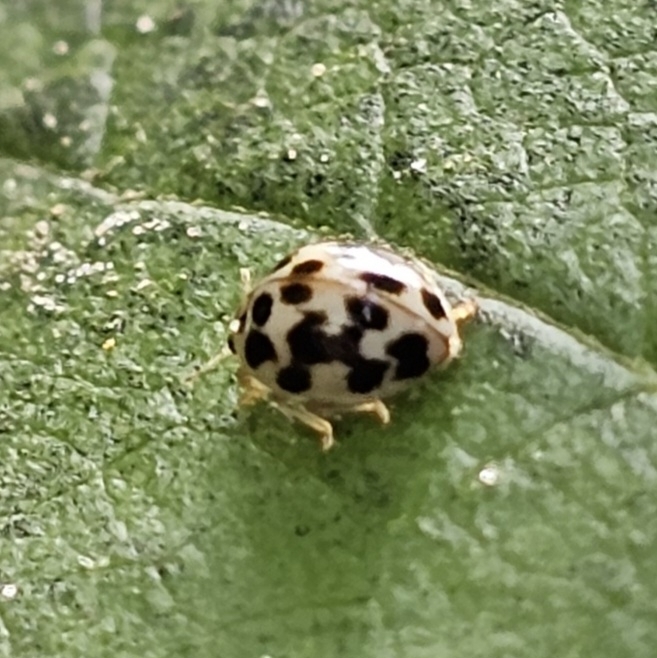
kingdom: Animalia
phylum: Arthropoda
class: Insecta
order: Coleoptera
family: Coccinellidae
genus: Psyllobora
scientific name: Psyllobora vigintimaculata
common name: Ladybird beetle
